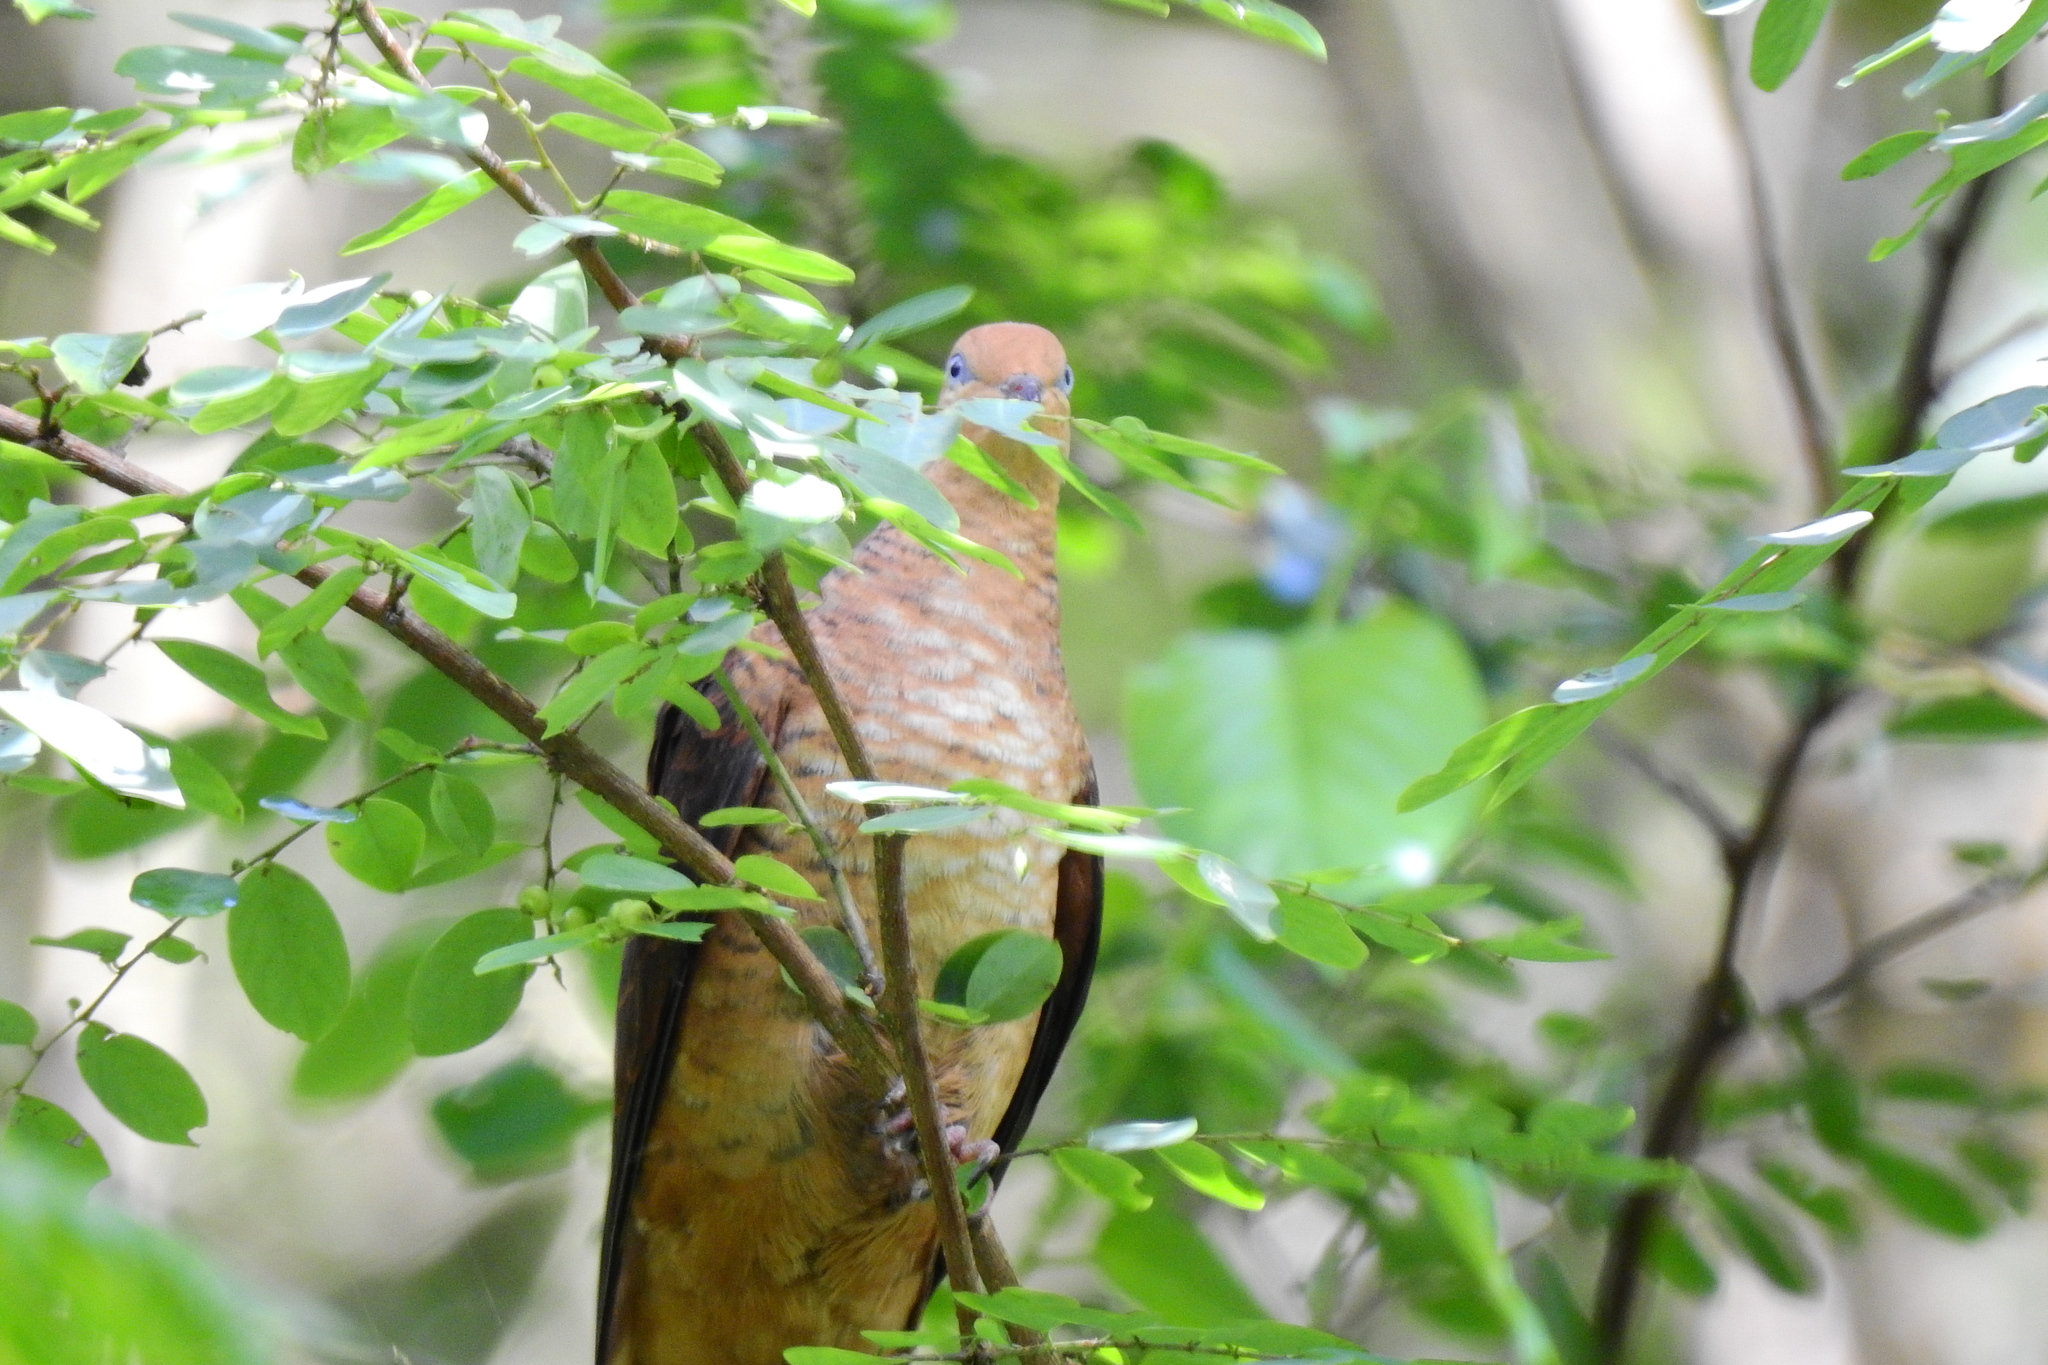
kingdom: Animalia
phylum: Chordata
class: Aves
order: Columbiformes
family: Columbidae
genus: Macropygia
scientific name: Macropygia ruficeps
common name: Little cuckoo-dove
